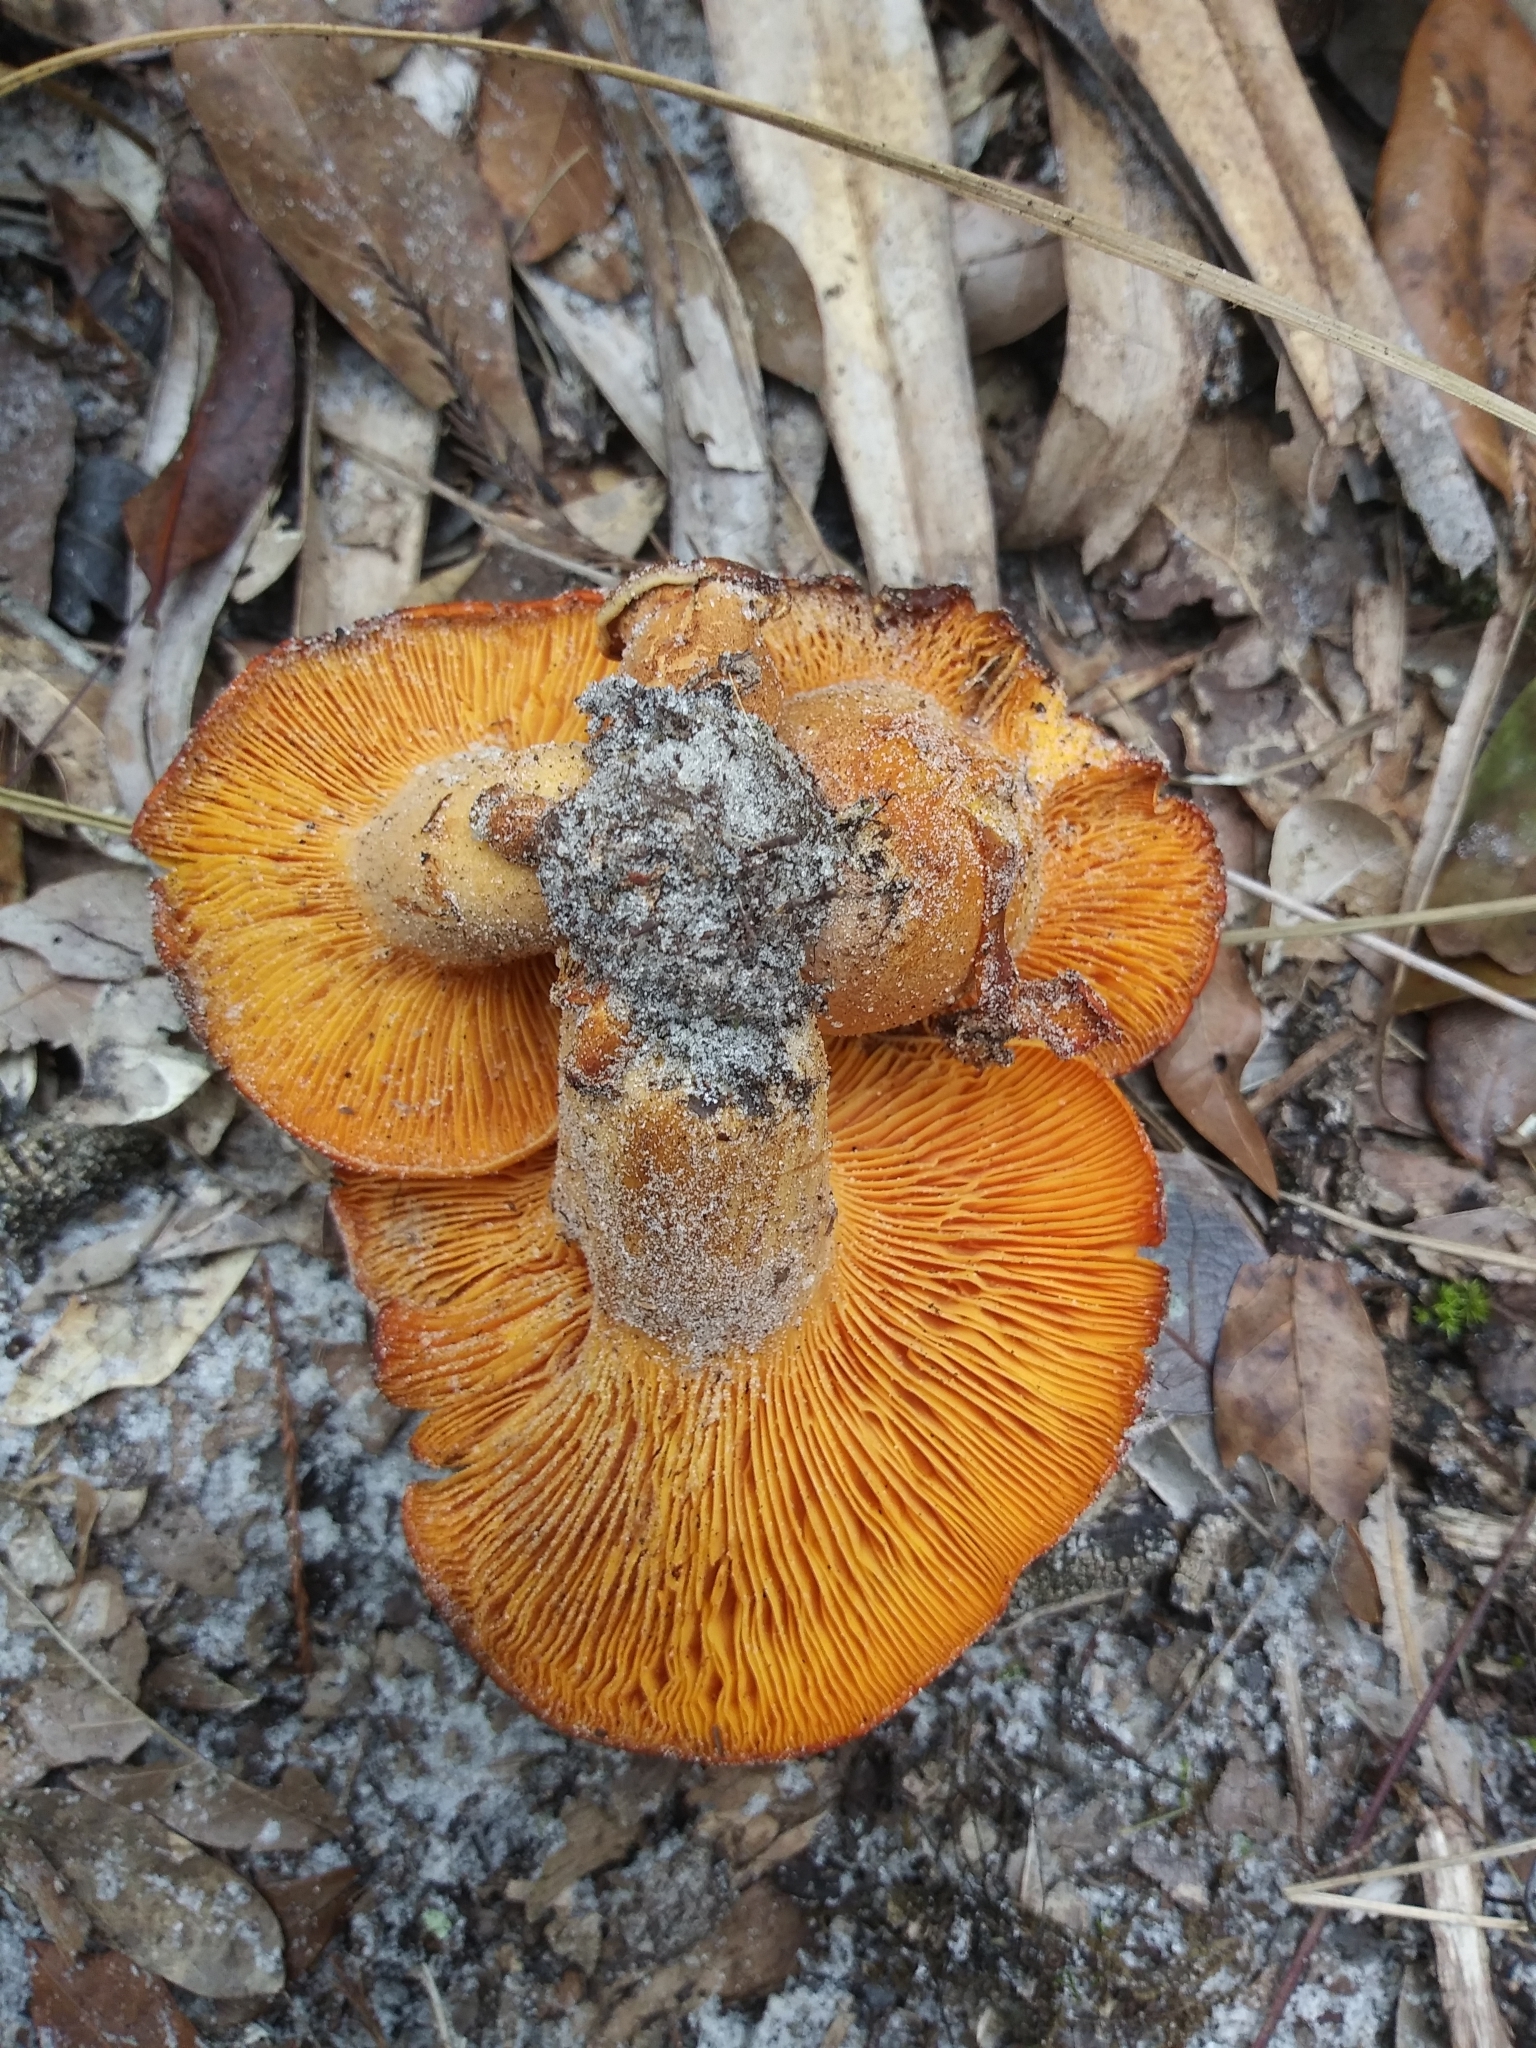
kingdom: Fungi
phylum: Basidiomycota
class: Agaricomycetes
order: Agaricales
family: Omphalotaceae
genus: Omphalotus
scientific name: Omphalotus subilludens
